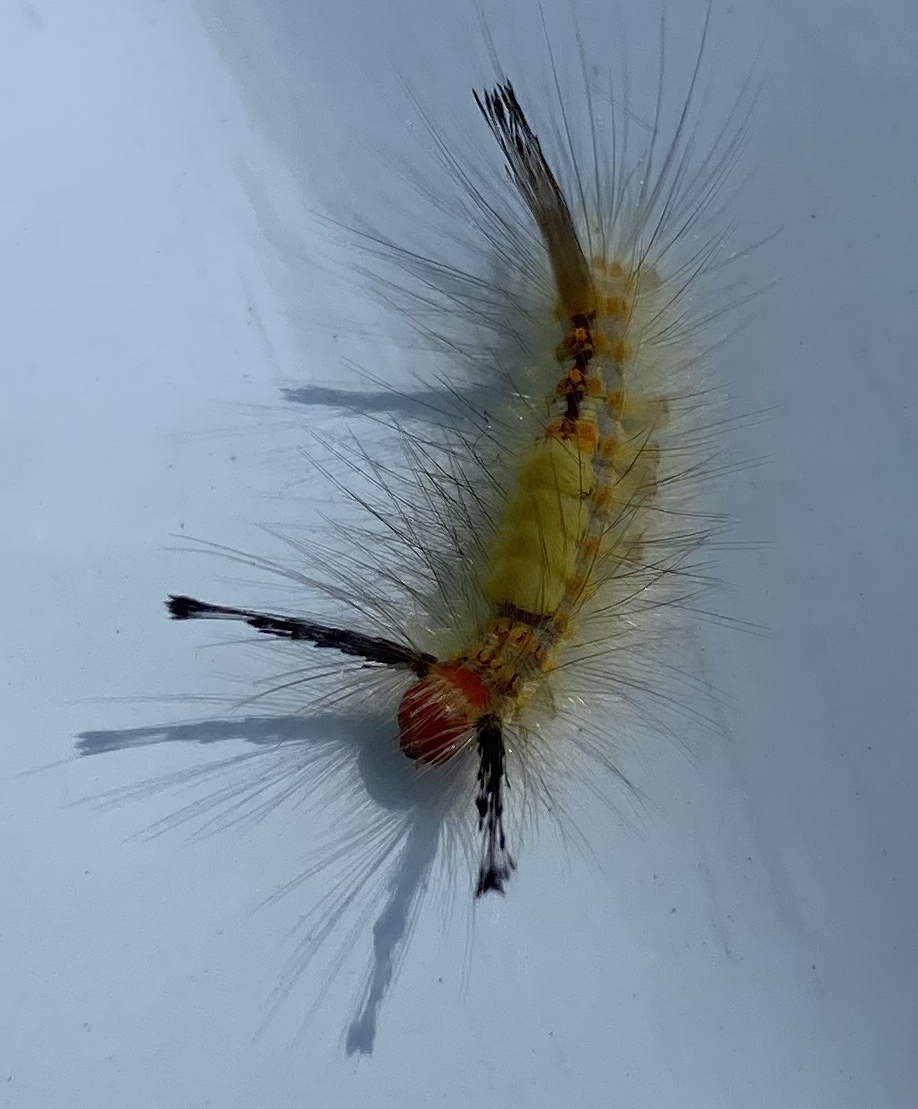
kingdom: Animalia
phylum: Arthropoda
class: Insecta
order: Lepidoptera
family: Erebidae
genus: Orgyia
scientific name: Orgyia detrita
